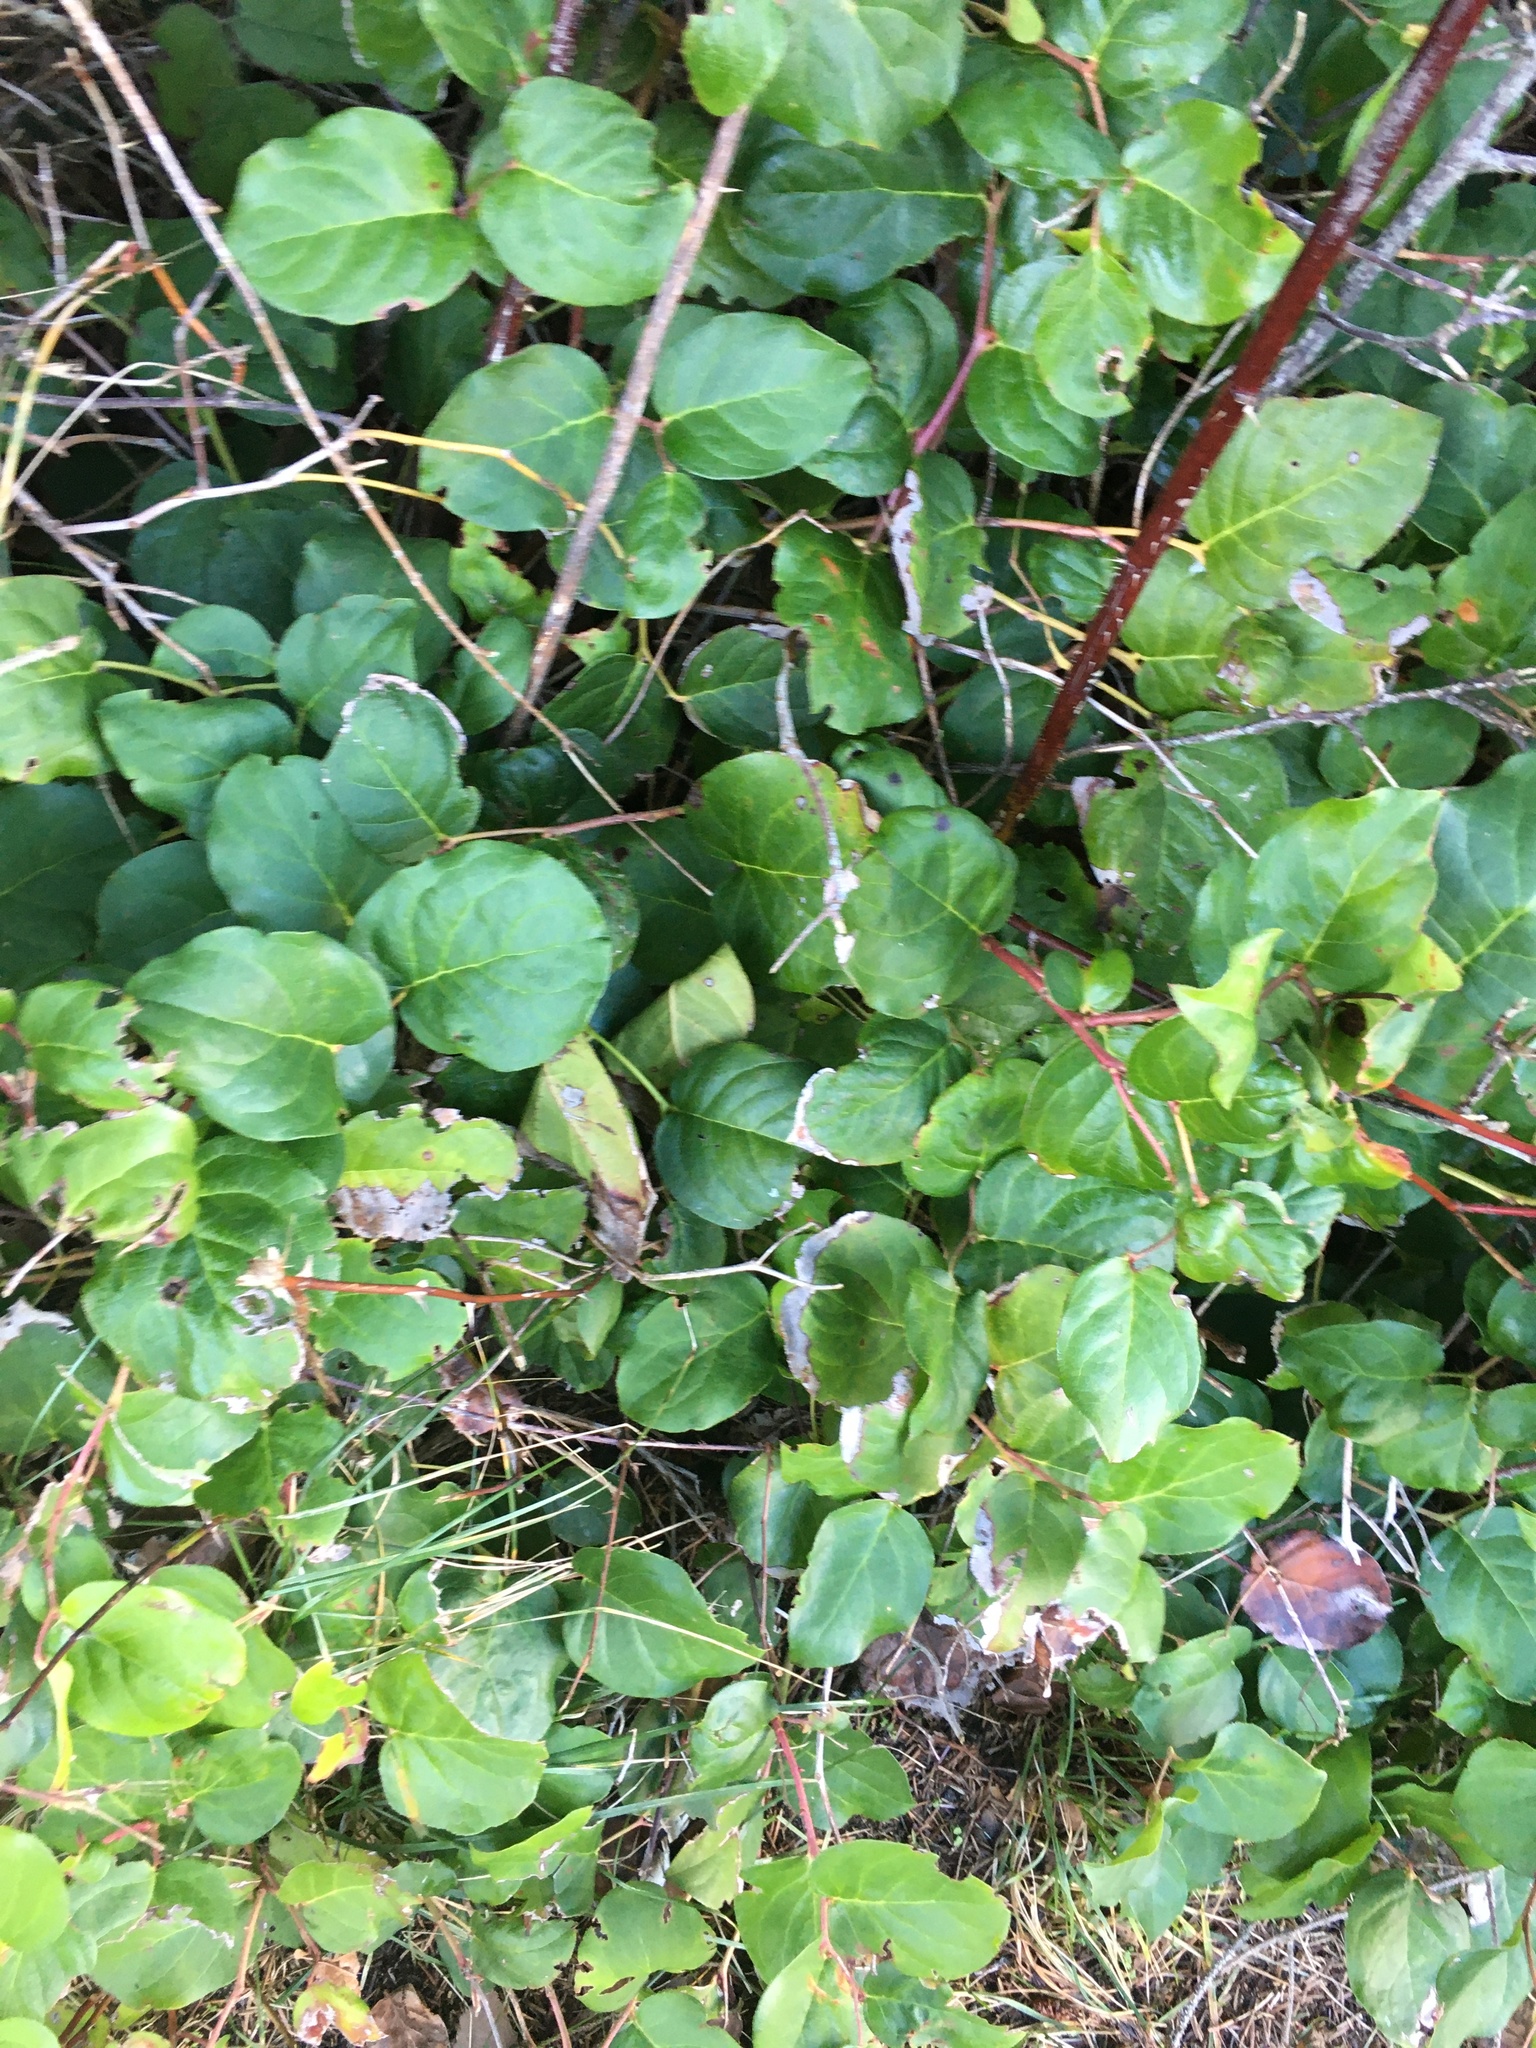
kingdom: Plantae
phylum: Tracheophyta
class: Magnoliopsida
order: Ericales
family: Ericaceae
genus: Gaultheria
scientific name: Gaultheria shallon
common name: Shallon
